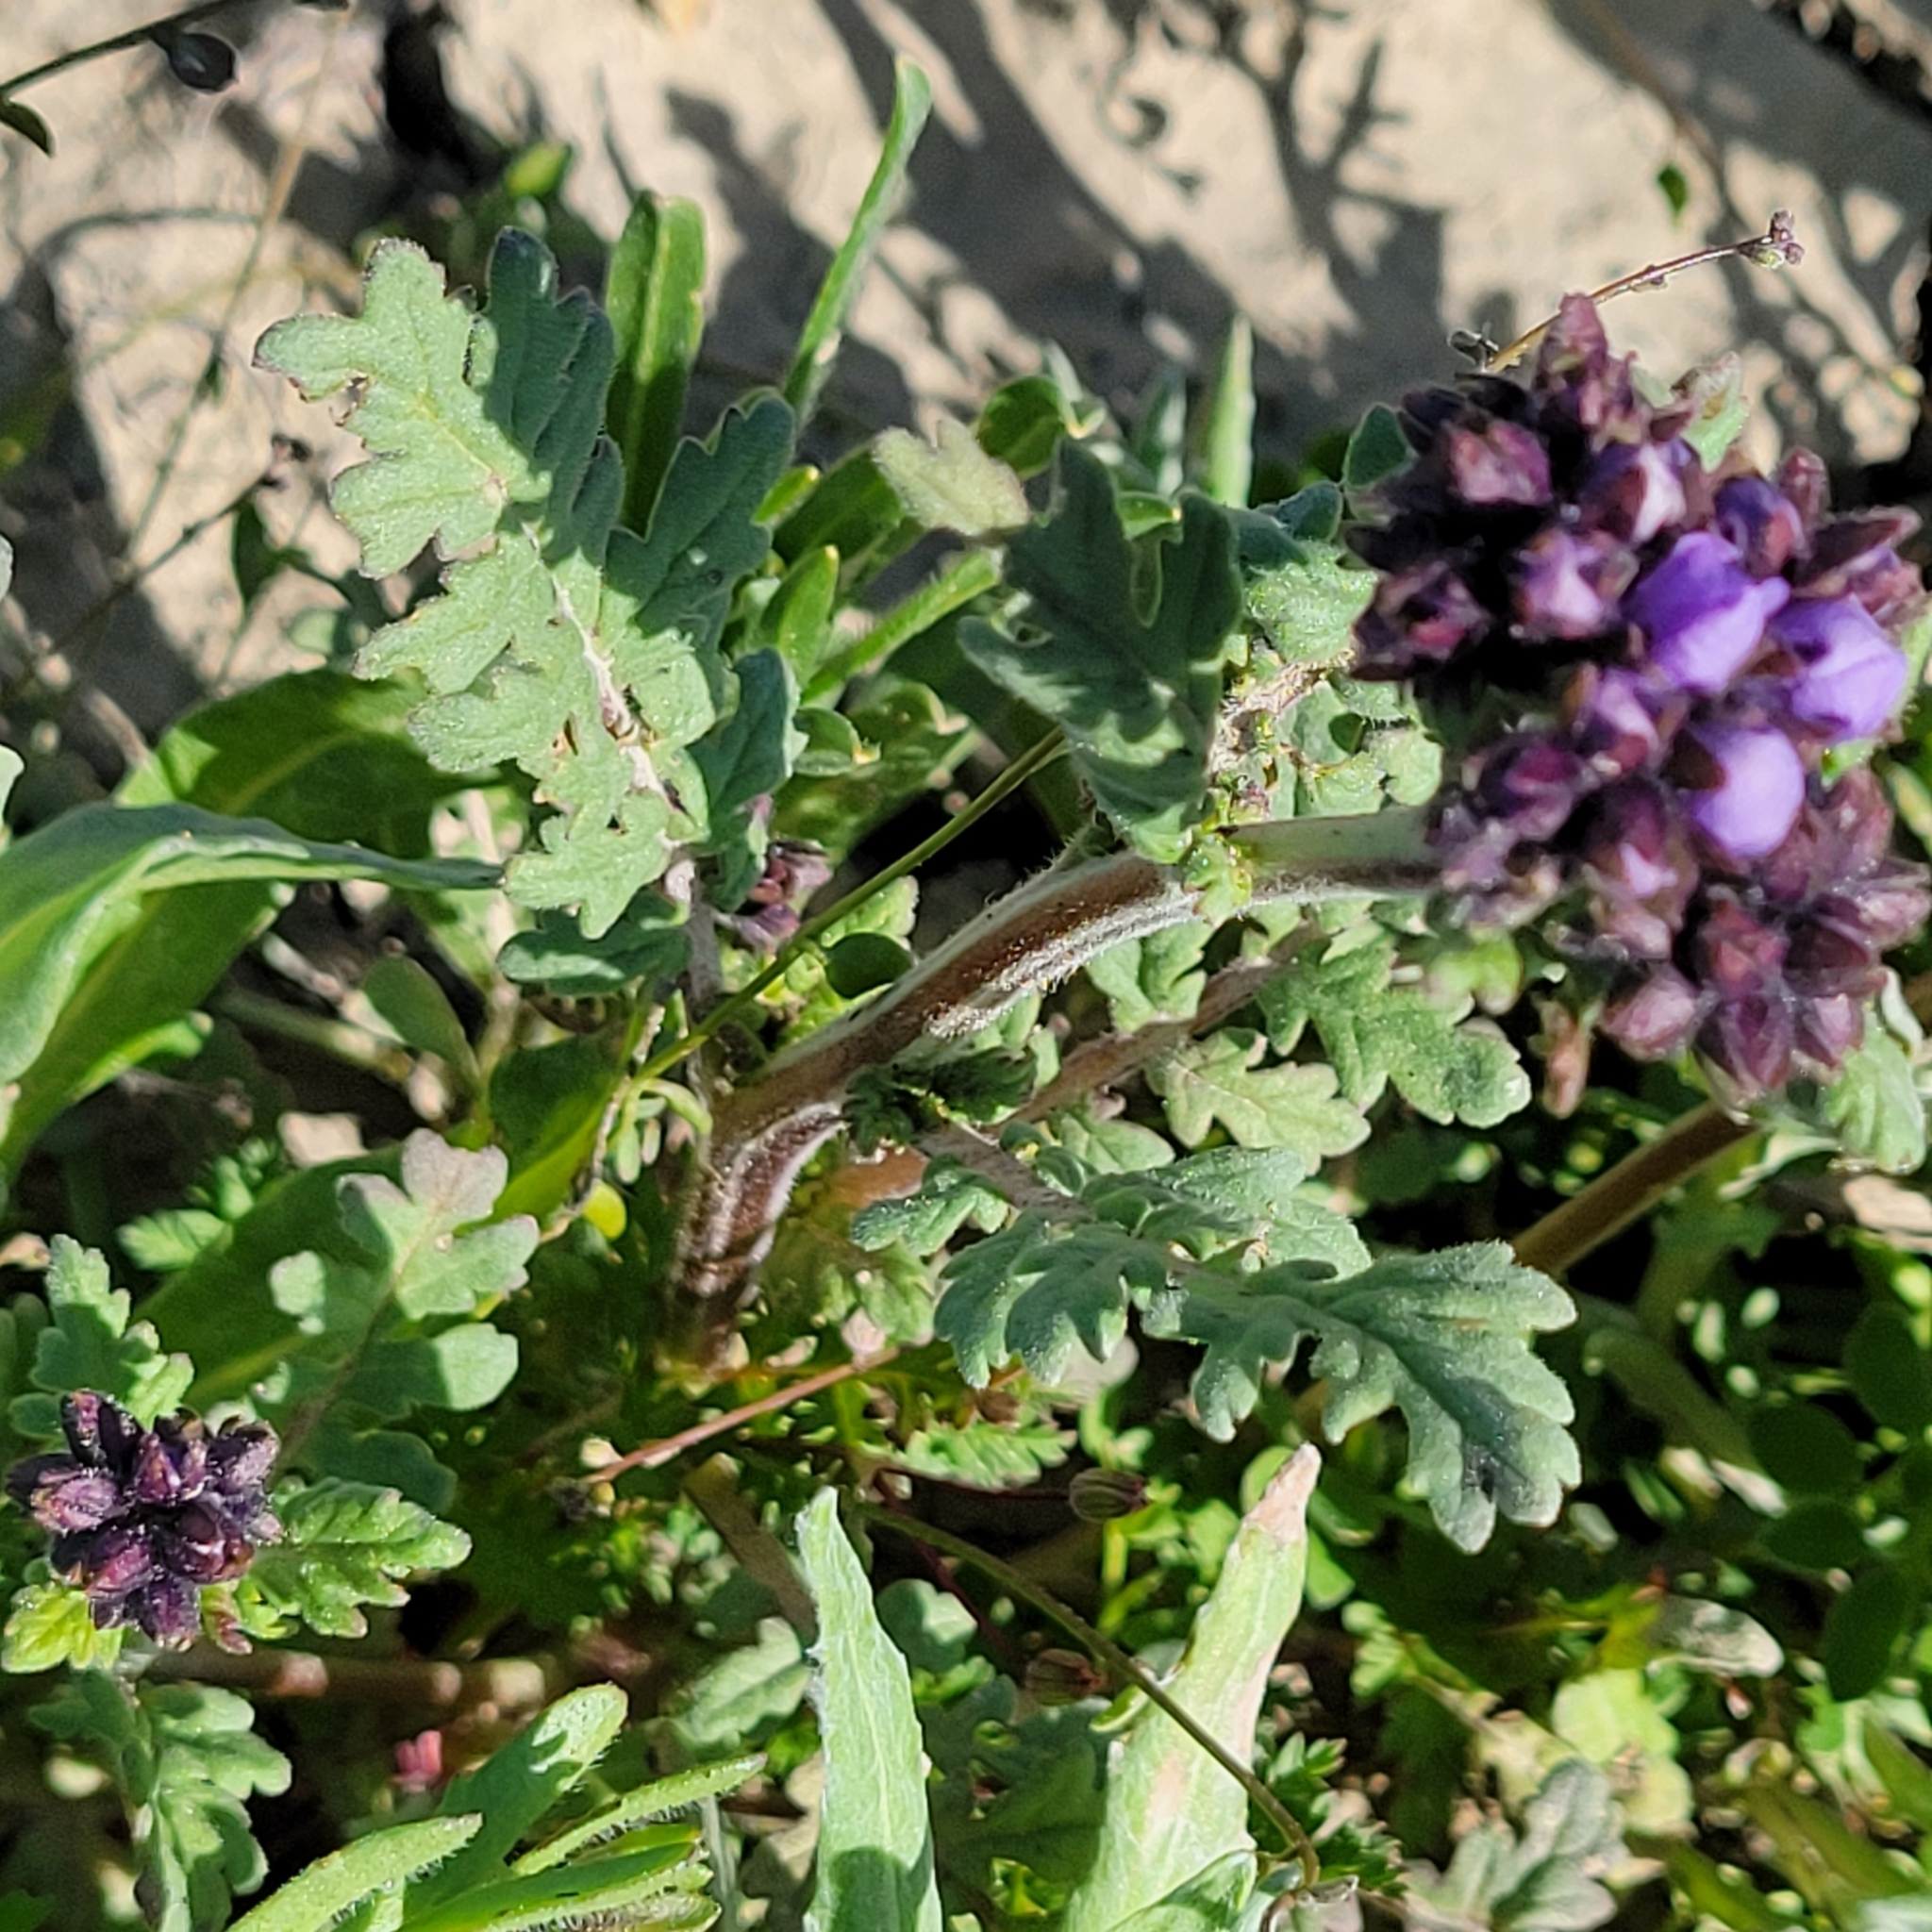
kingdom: Plantae
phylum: Tracheophyta
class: Magnoliopsida
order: Boraginales
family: Hydrophyllaceae
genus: Phacelia
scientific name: Phacelia ciliata
